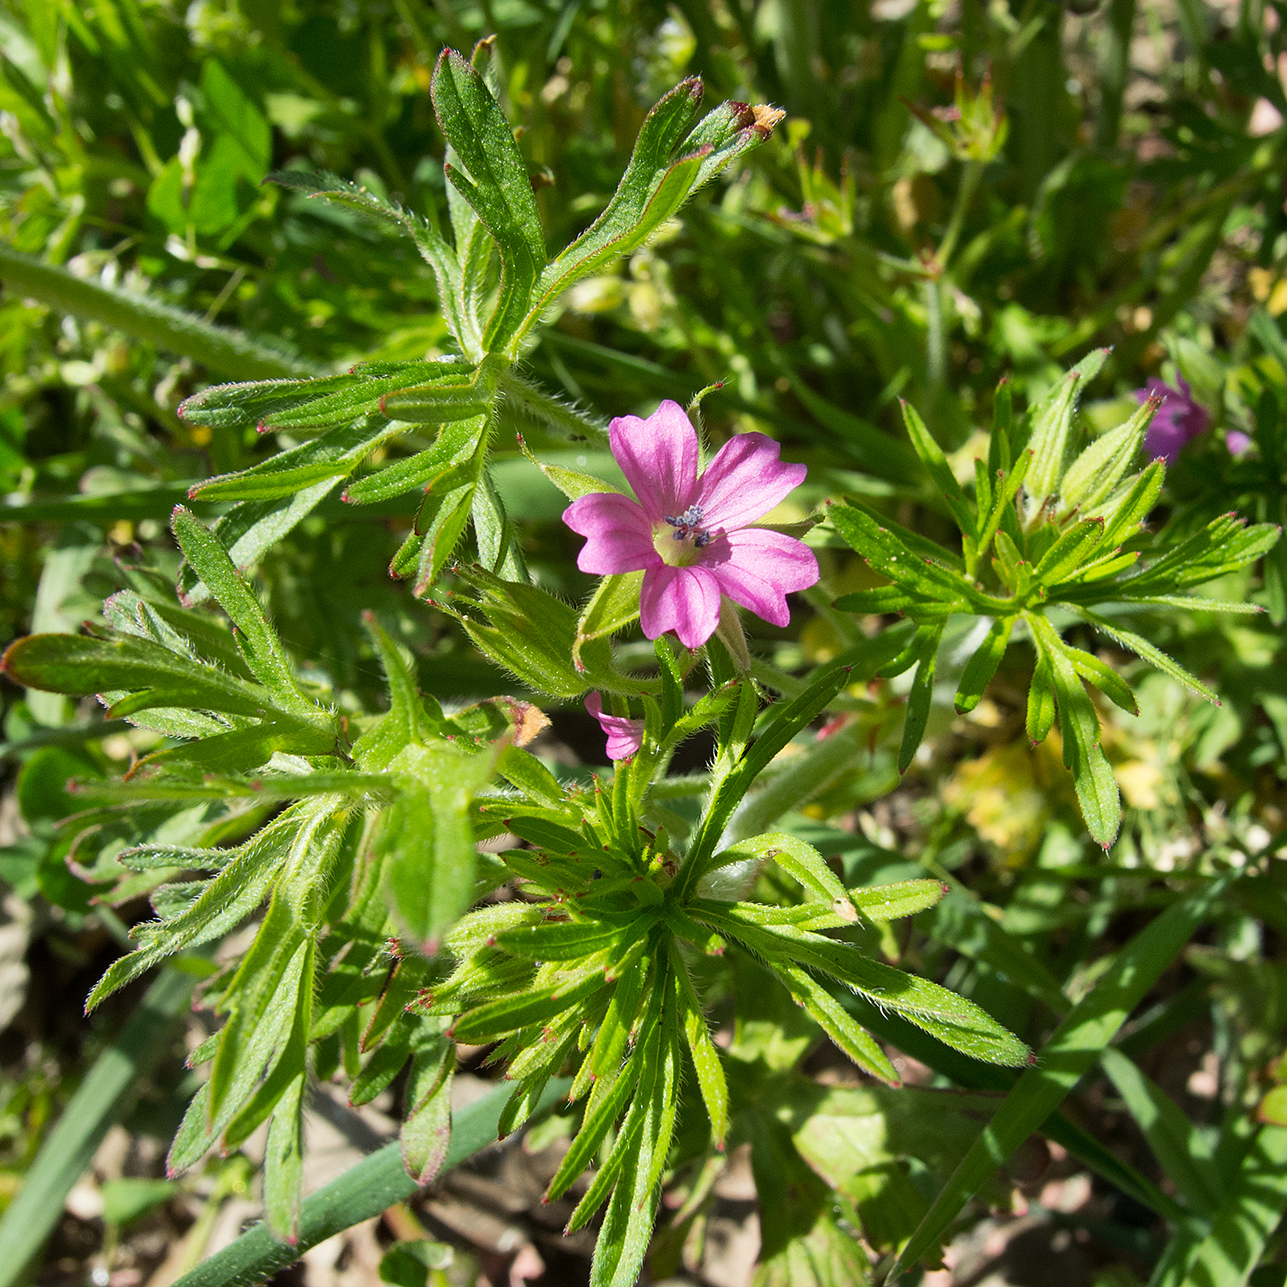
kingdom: Plantae
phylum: Tracheophyta
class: Magnoliopsida
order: Geraniales
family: Geraniaceae
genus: Geranium
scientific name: Geranium dissectum
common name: Cut-leaved crane's-bill
